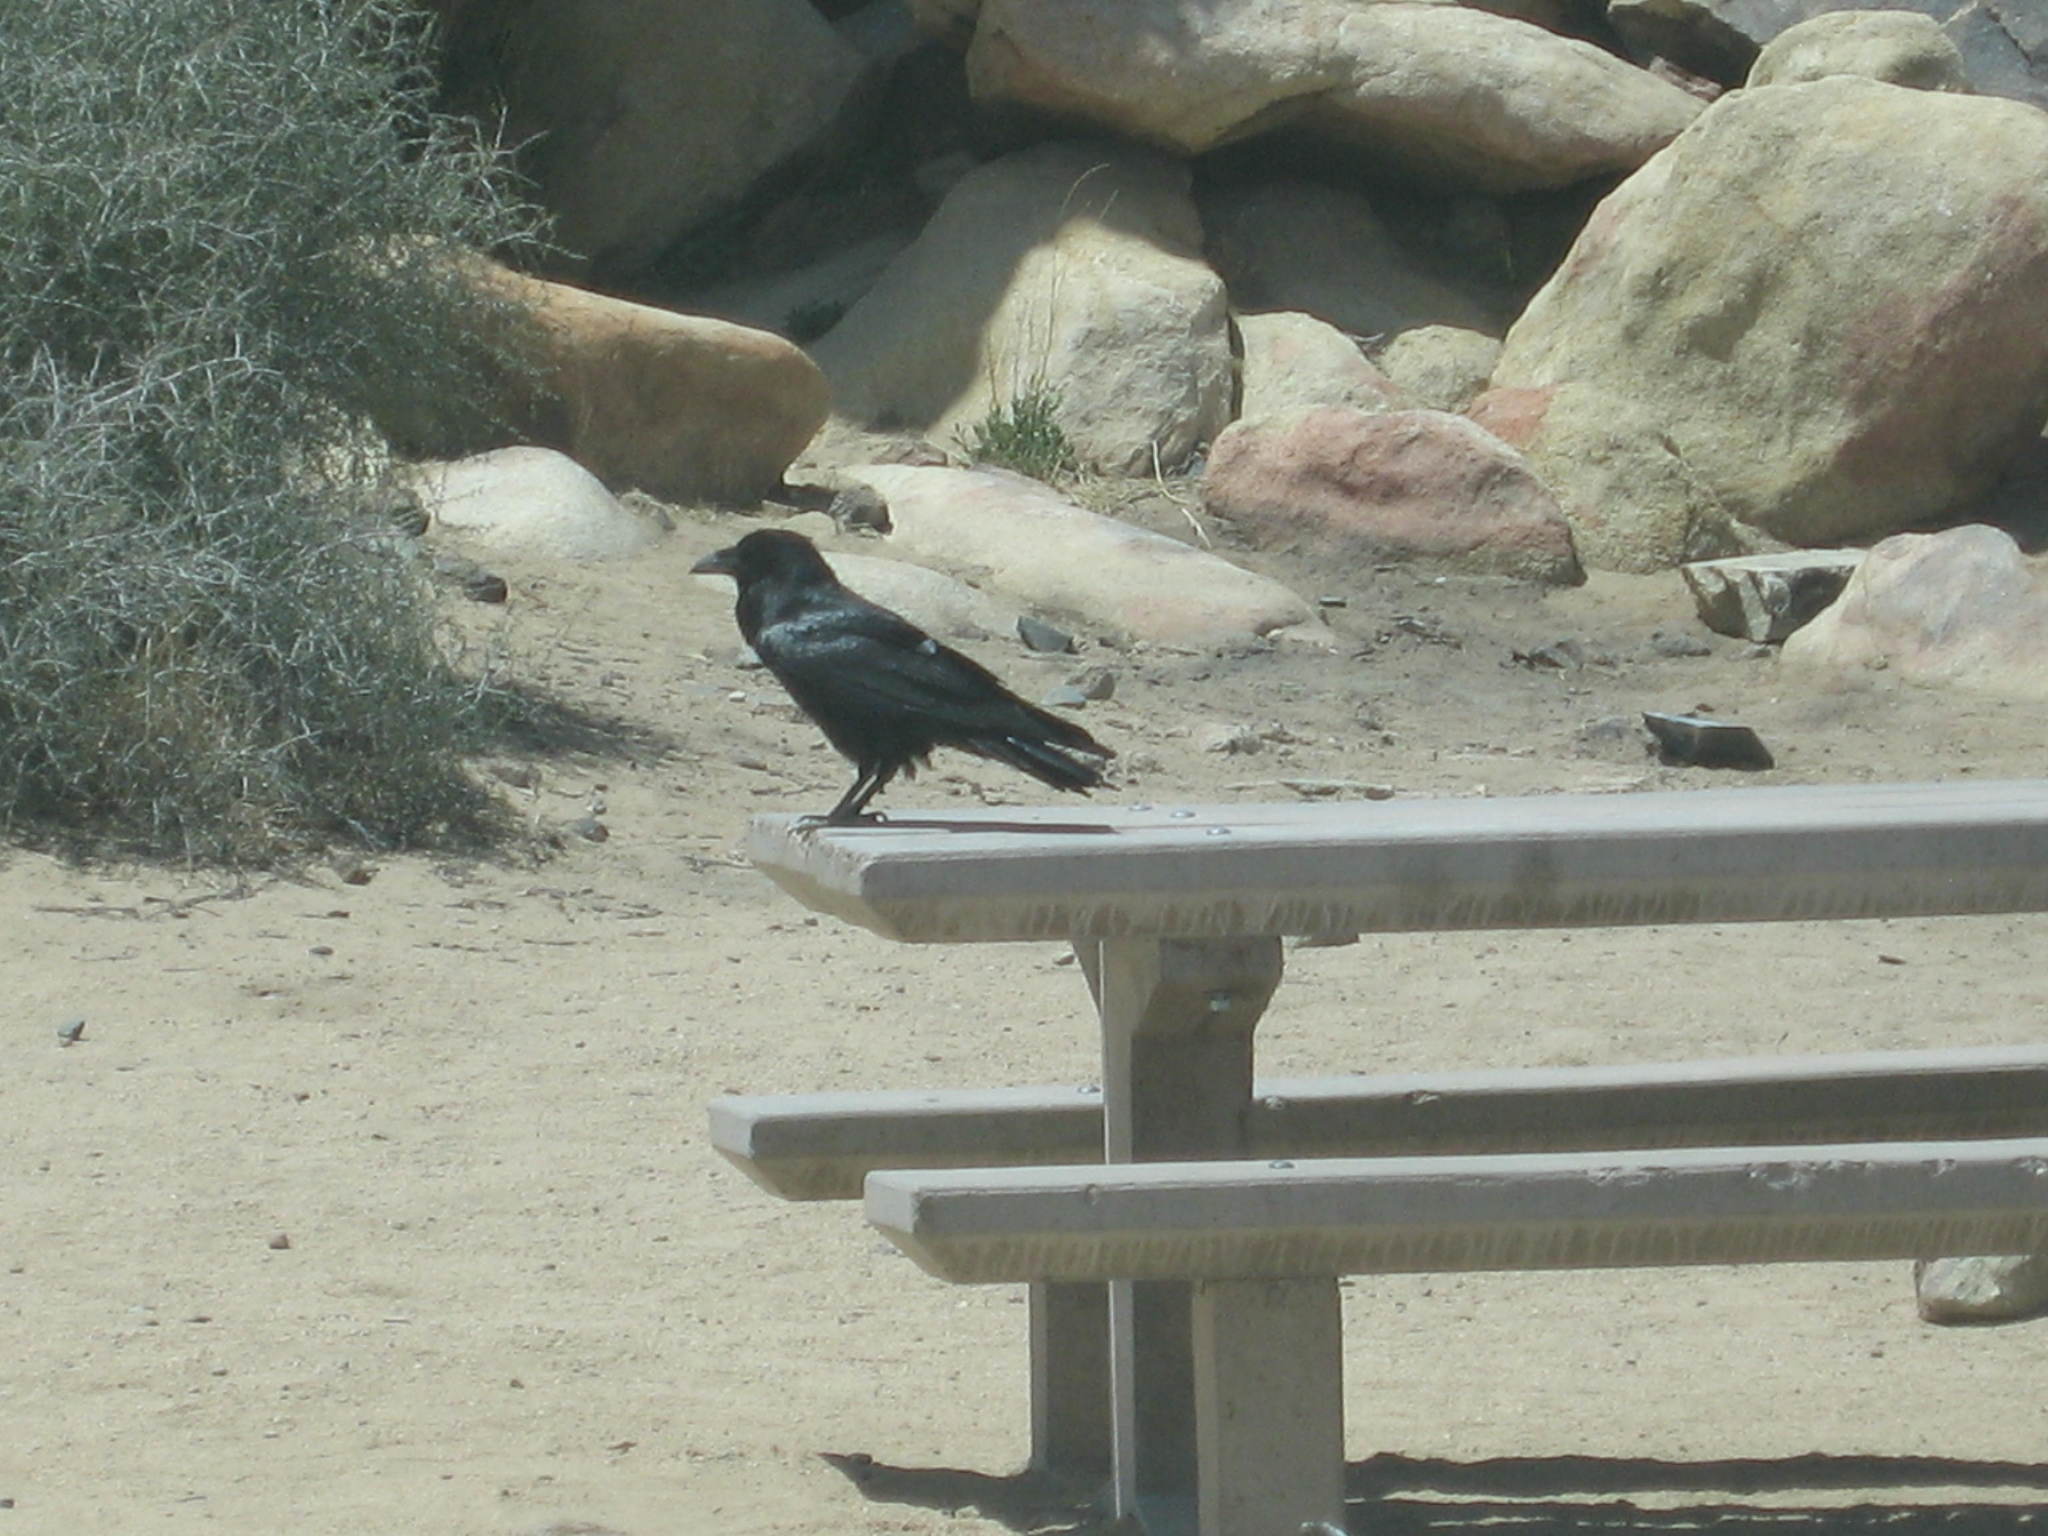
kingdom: Animalia
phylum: Chordata
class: Aves
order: Passeriformes
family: Corvidae
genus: Corvus
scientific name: Corvus corax
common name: Common raven
